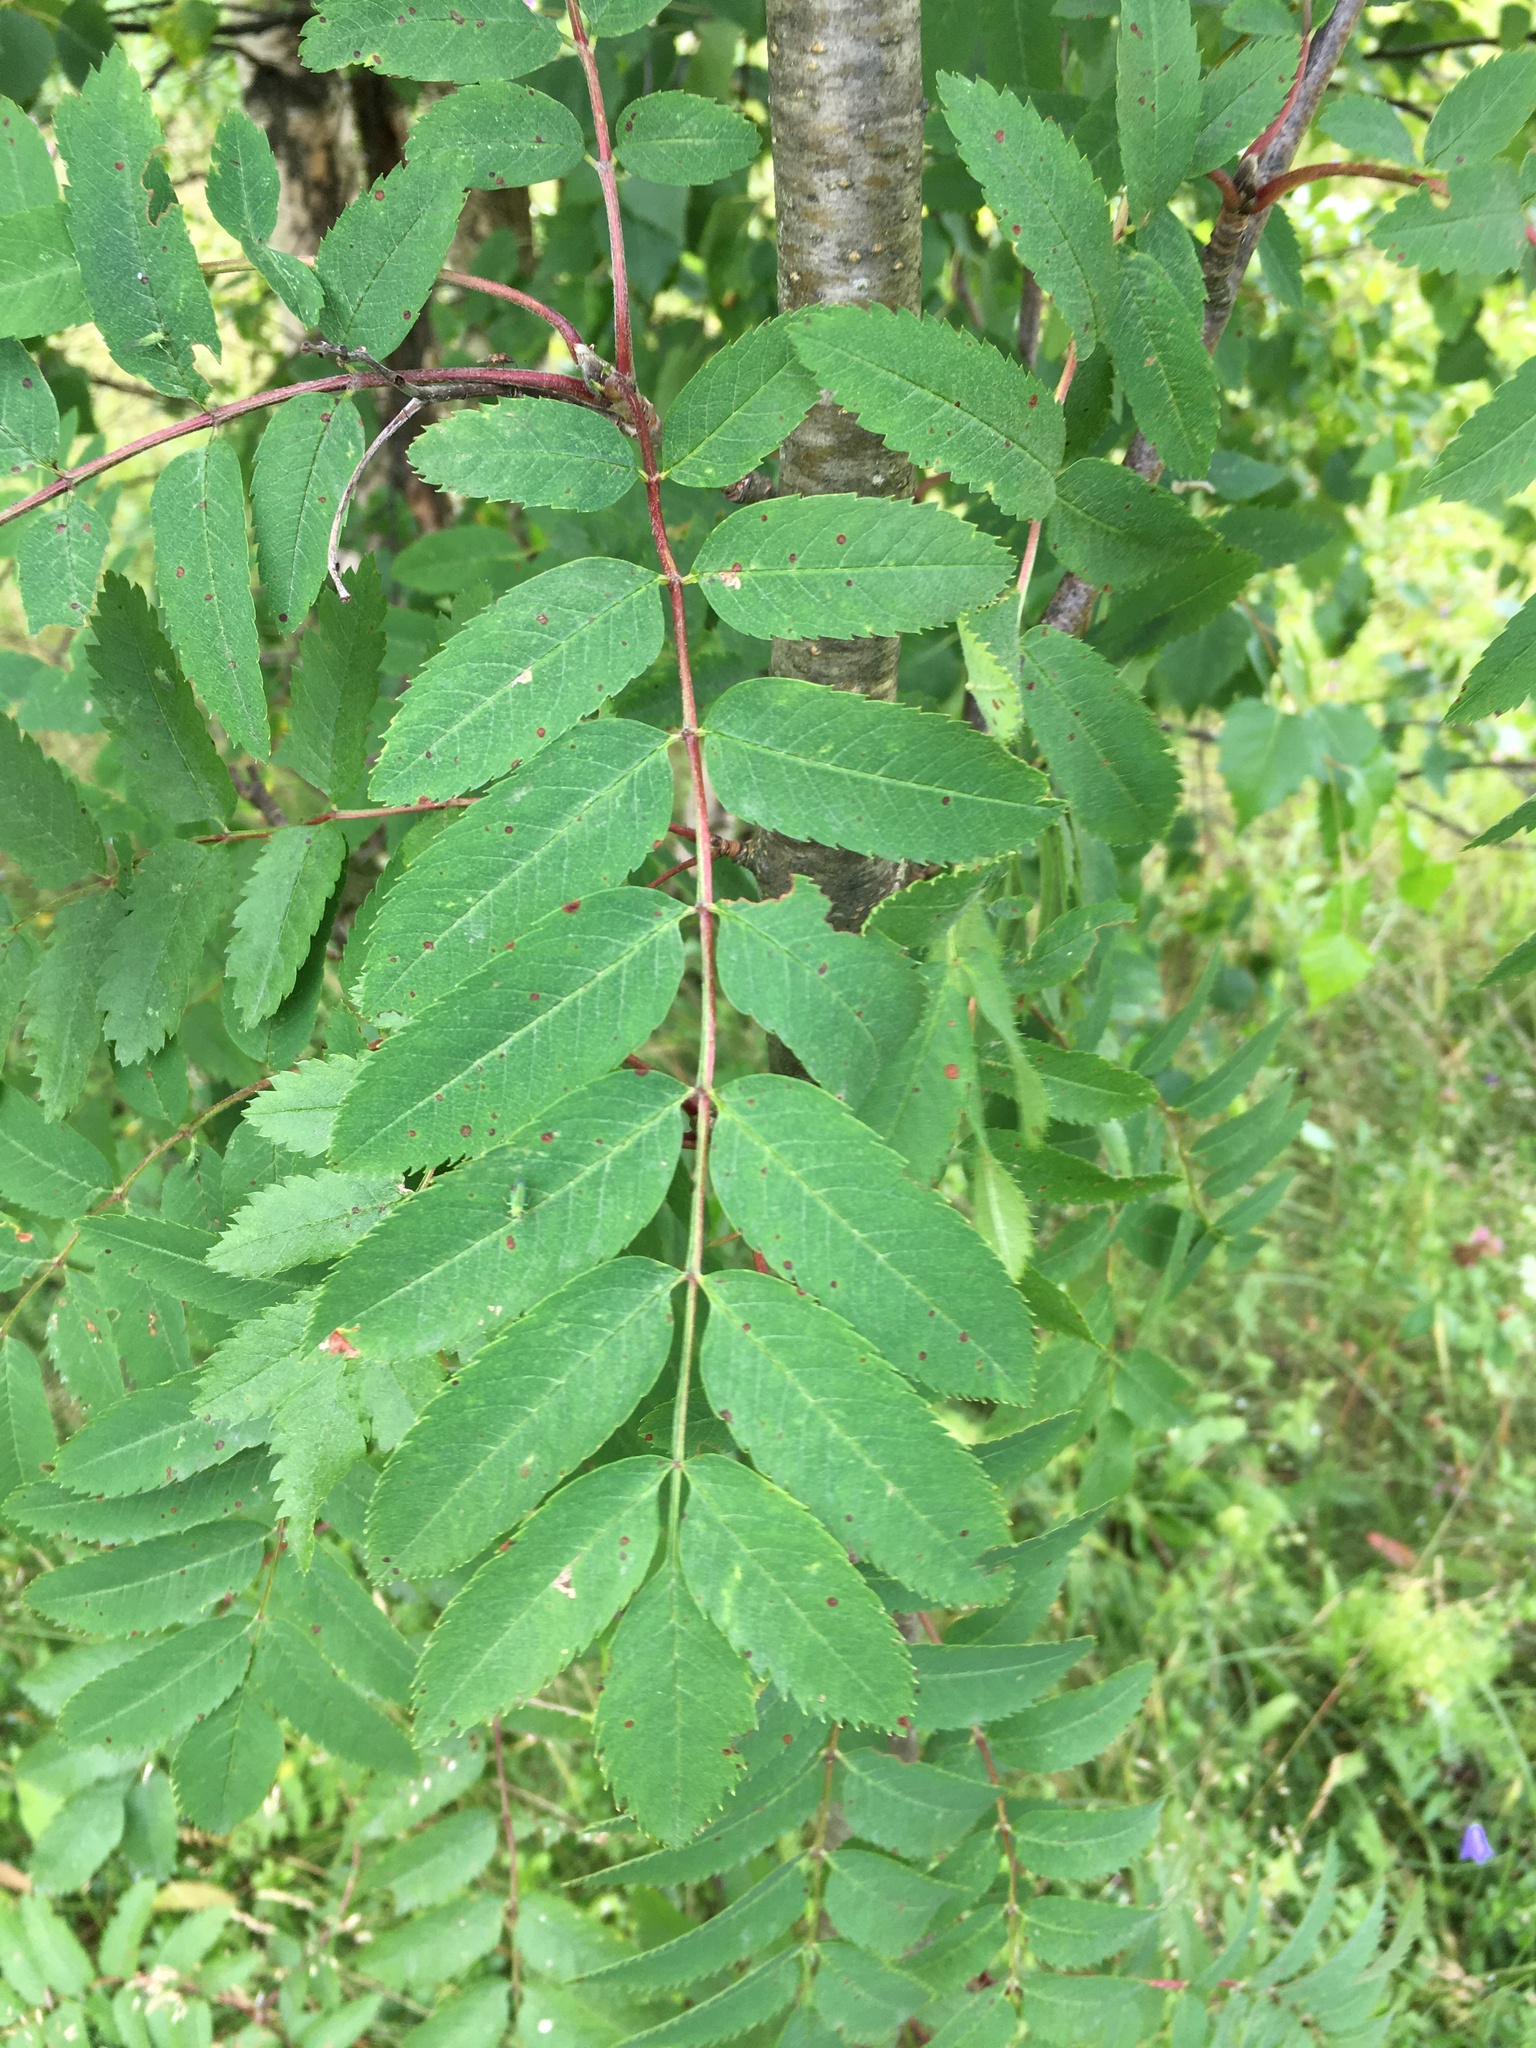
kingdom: Plantae
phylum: Tracheophyta
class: Magnoliopsida
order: Rosales
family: Rosaceae
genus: Sorbus
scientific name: Sorbus aucuparia
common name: Rowan
